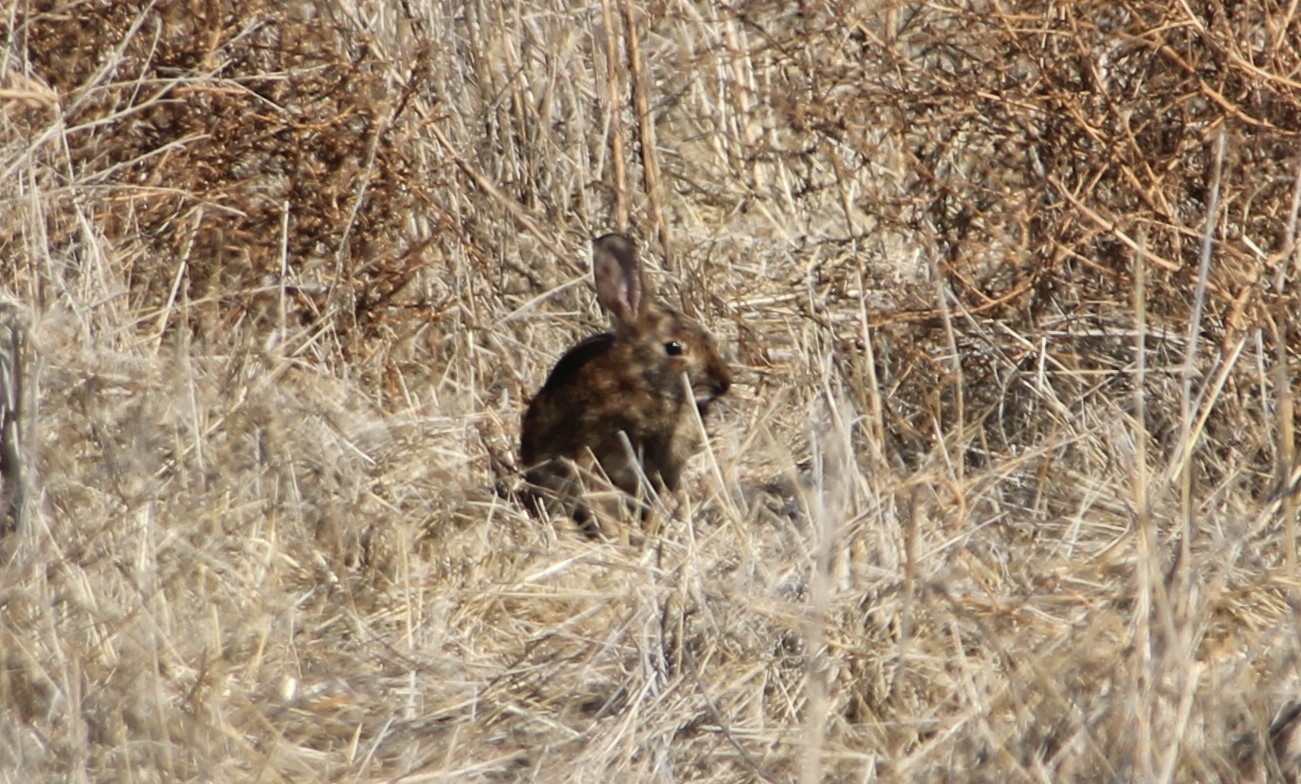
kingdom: Animalia
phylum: Chordata
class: Mammalia
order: Lagomorpha
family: Leporidae
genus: Sylvilagus
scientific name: Sylvilagus bachmani
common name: Brush rabbit
